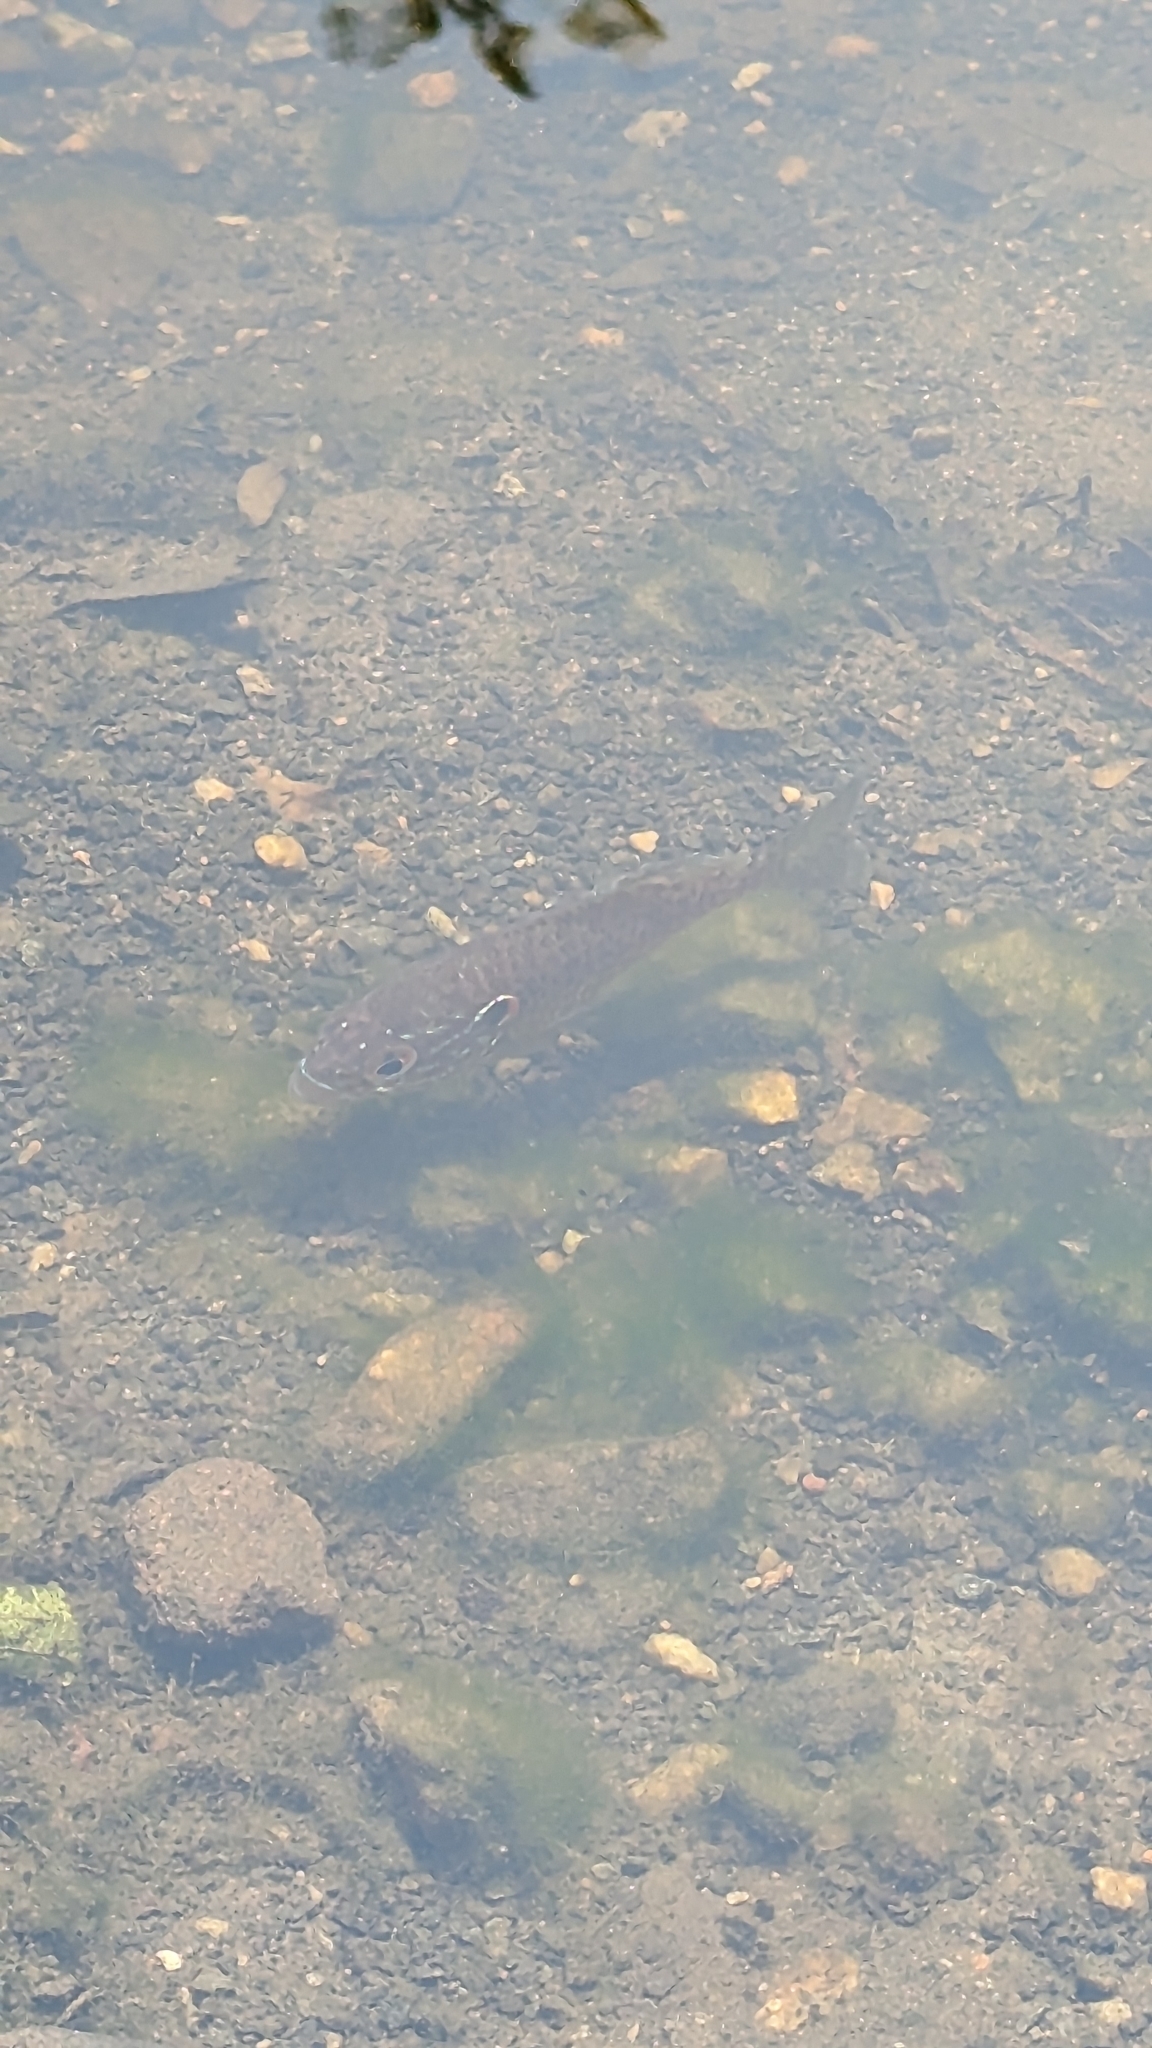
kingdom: Animalia
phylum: Chordata
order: Perciformes
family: Centrarchidae
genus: Lepomis
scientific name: Lepomis gibbosus
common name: Pumpkinseed
